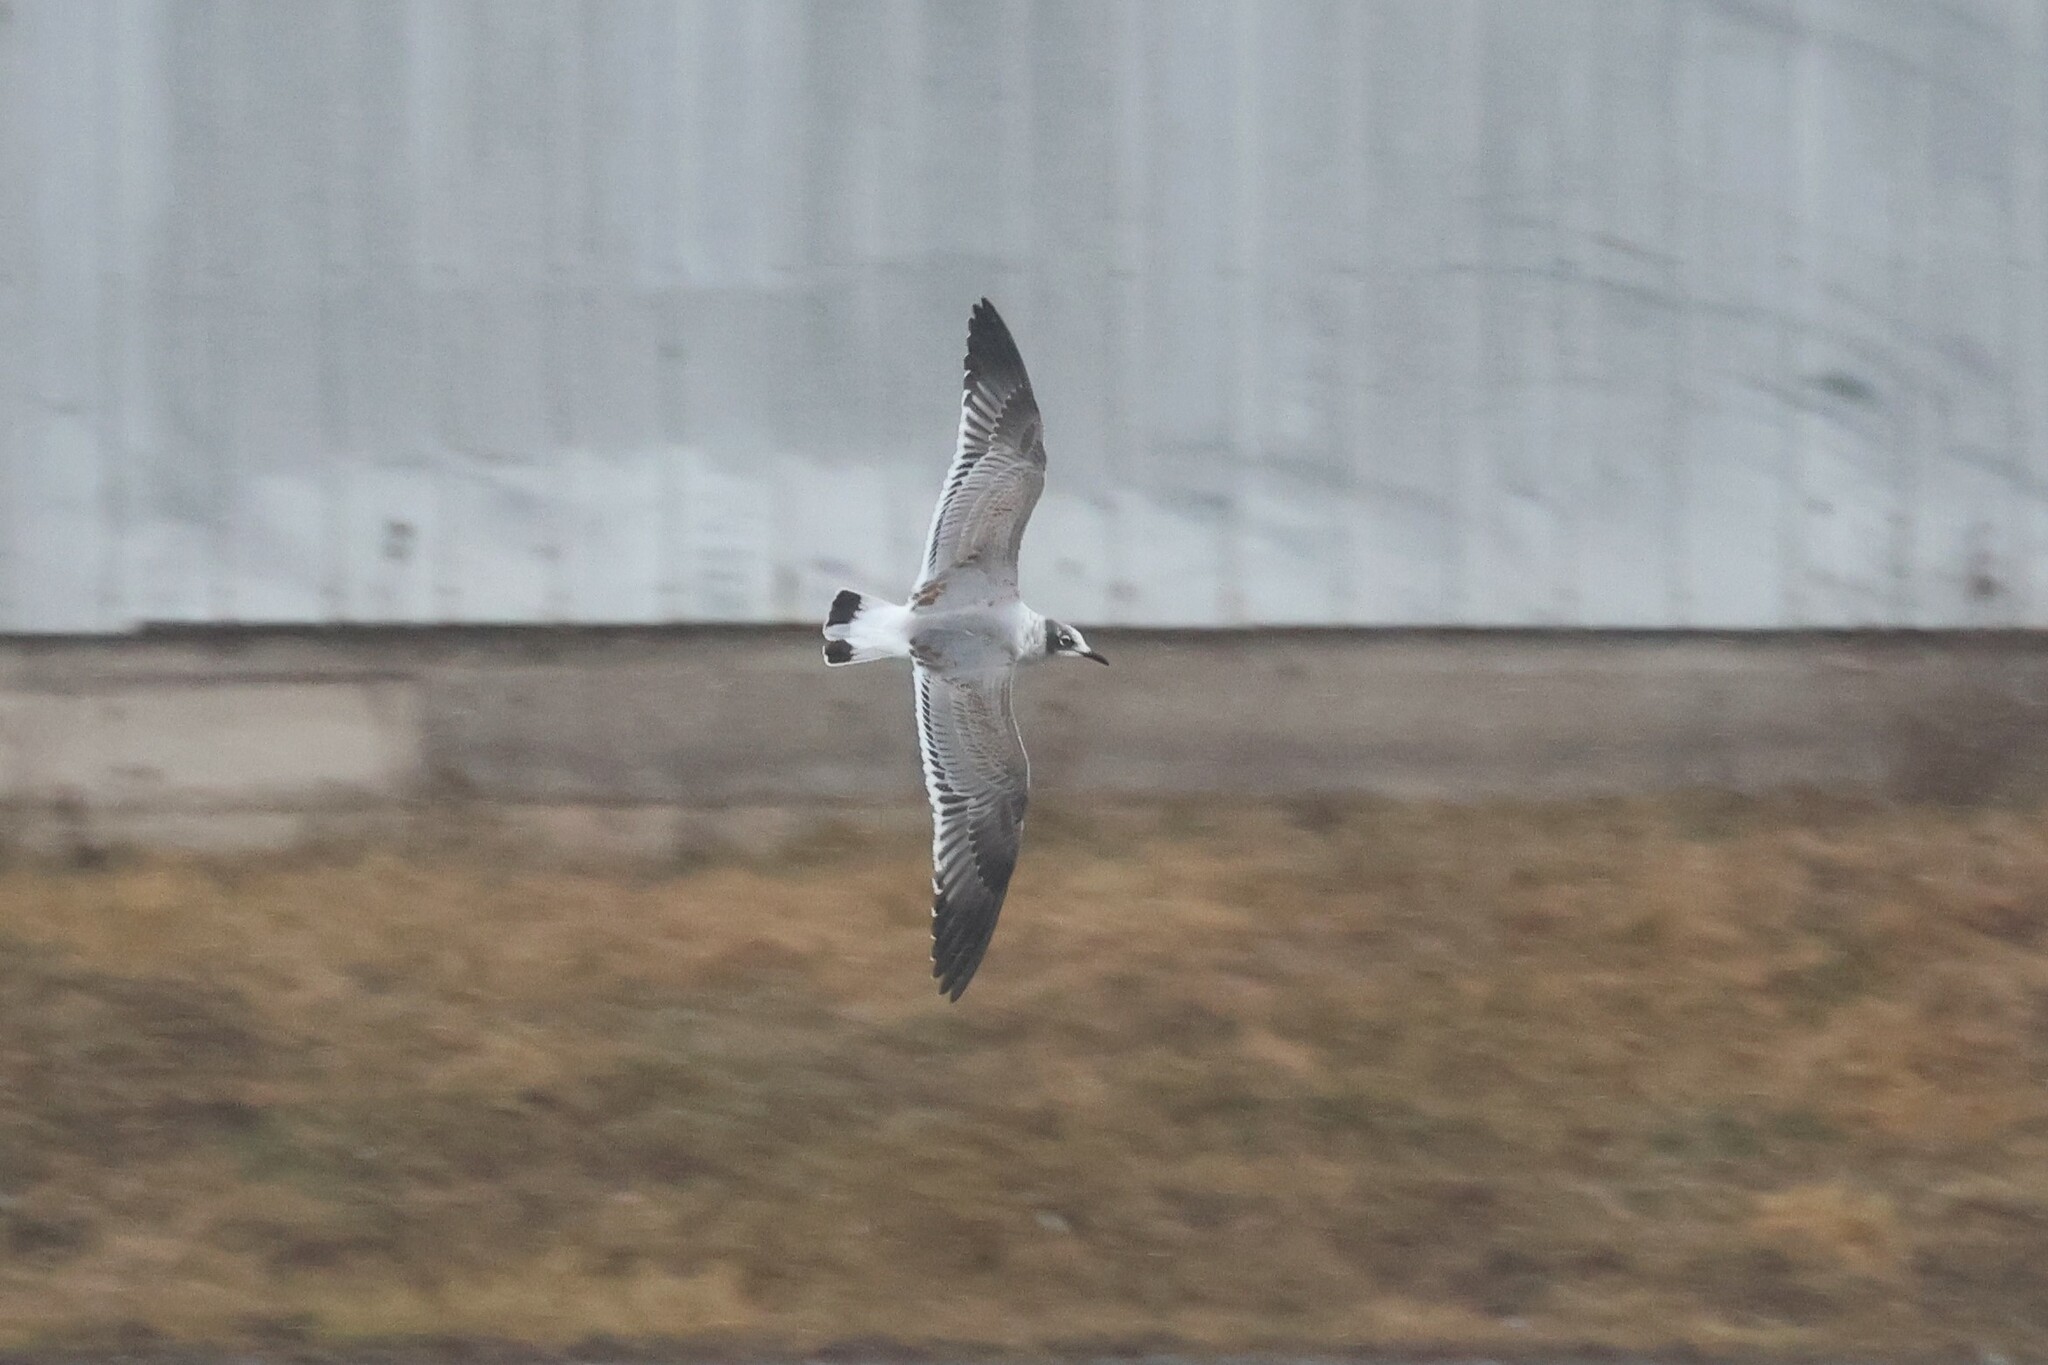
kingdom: Animalia
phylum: Chordata
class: Aves
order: Charadriiformes
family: Laridae
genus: Leucophaeus
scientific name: Leucophaeus pipixcan
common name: Franklin's gull
